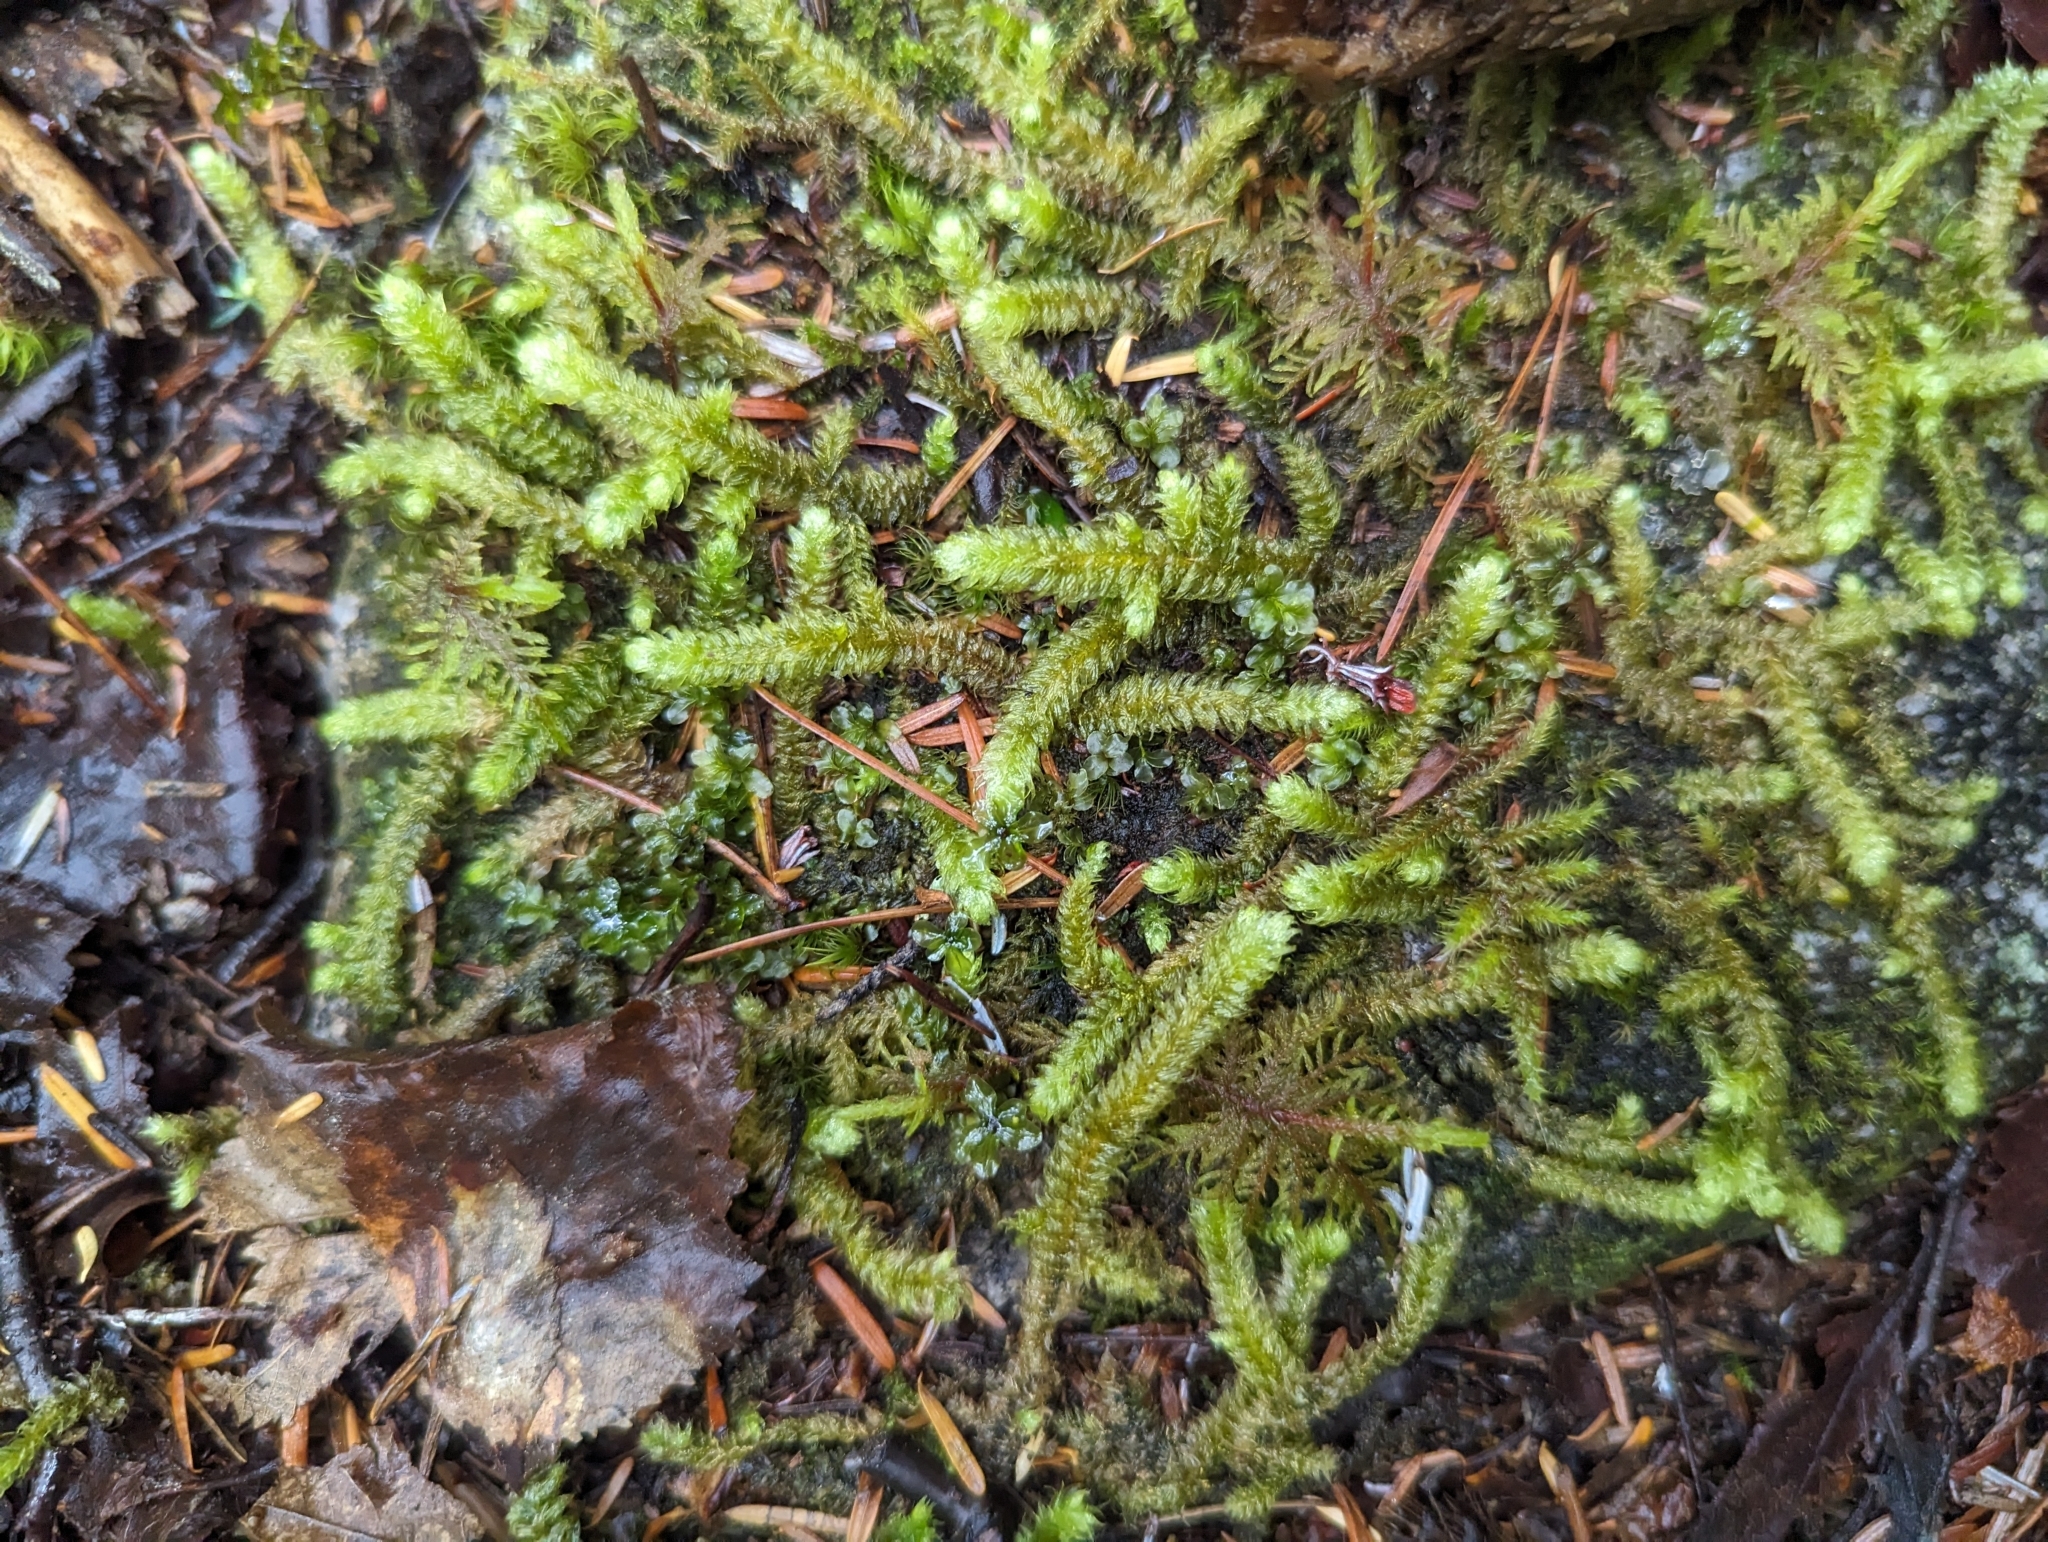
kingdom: Plantae
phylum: Bryophyta
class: Bryopsida
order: Hypnales
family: Hylocomiaceae
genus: Rhytidiopsis
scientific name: Rhytidiopsis robusta
